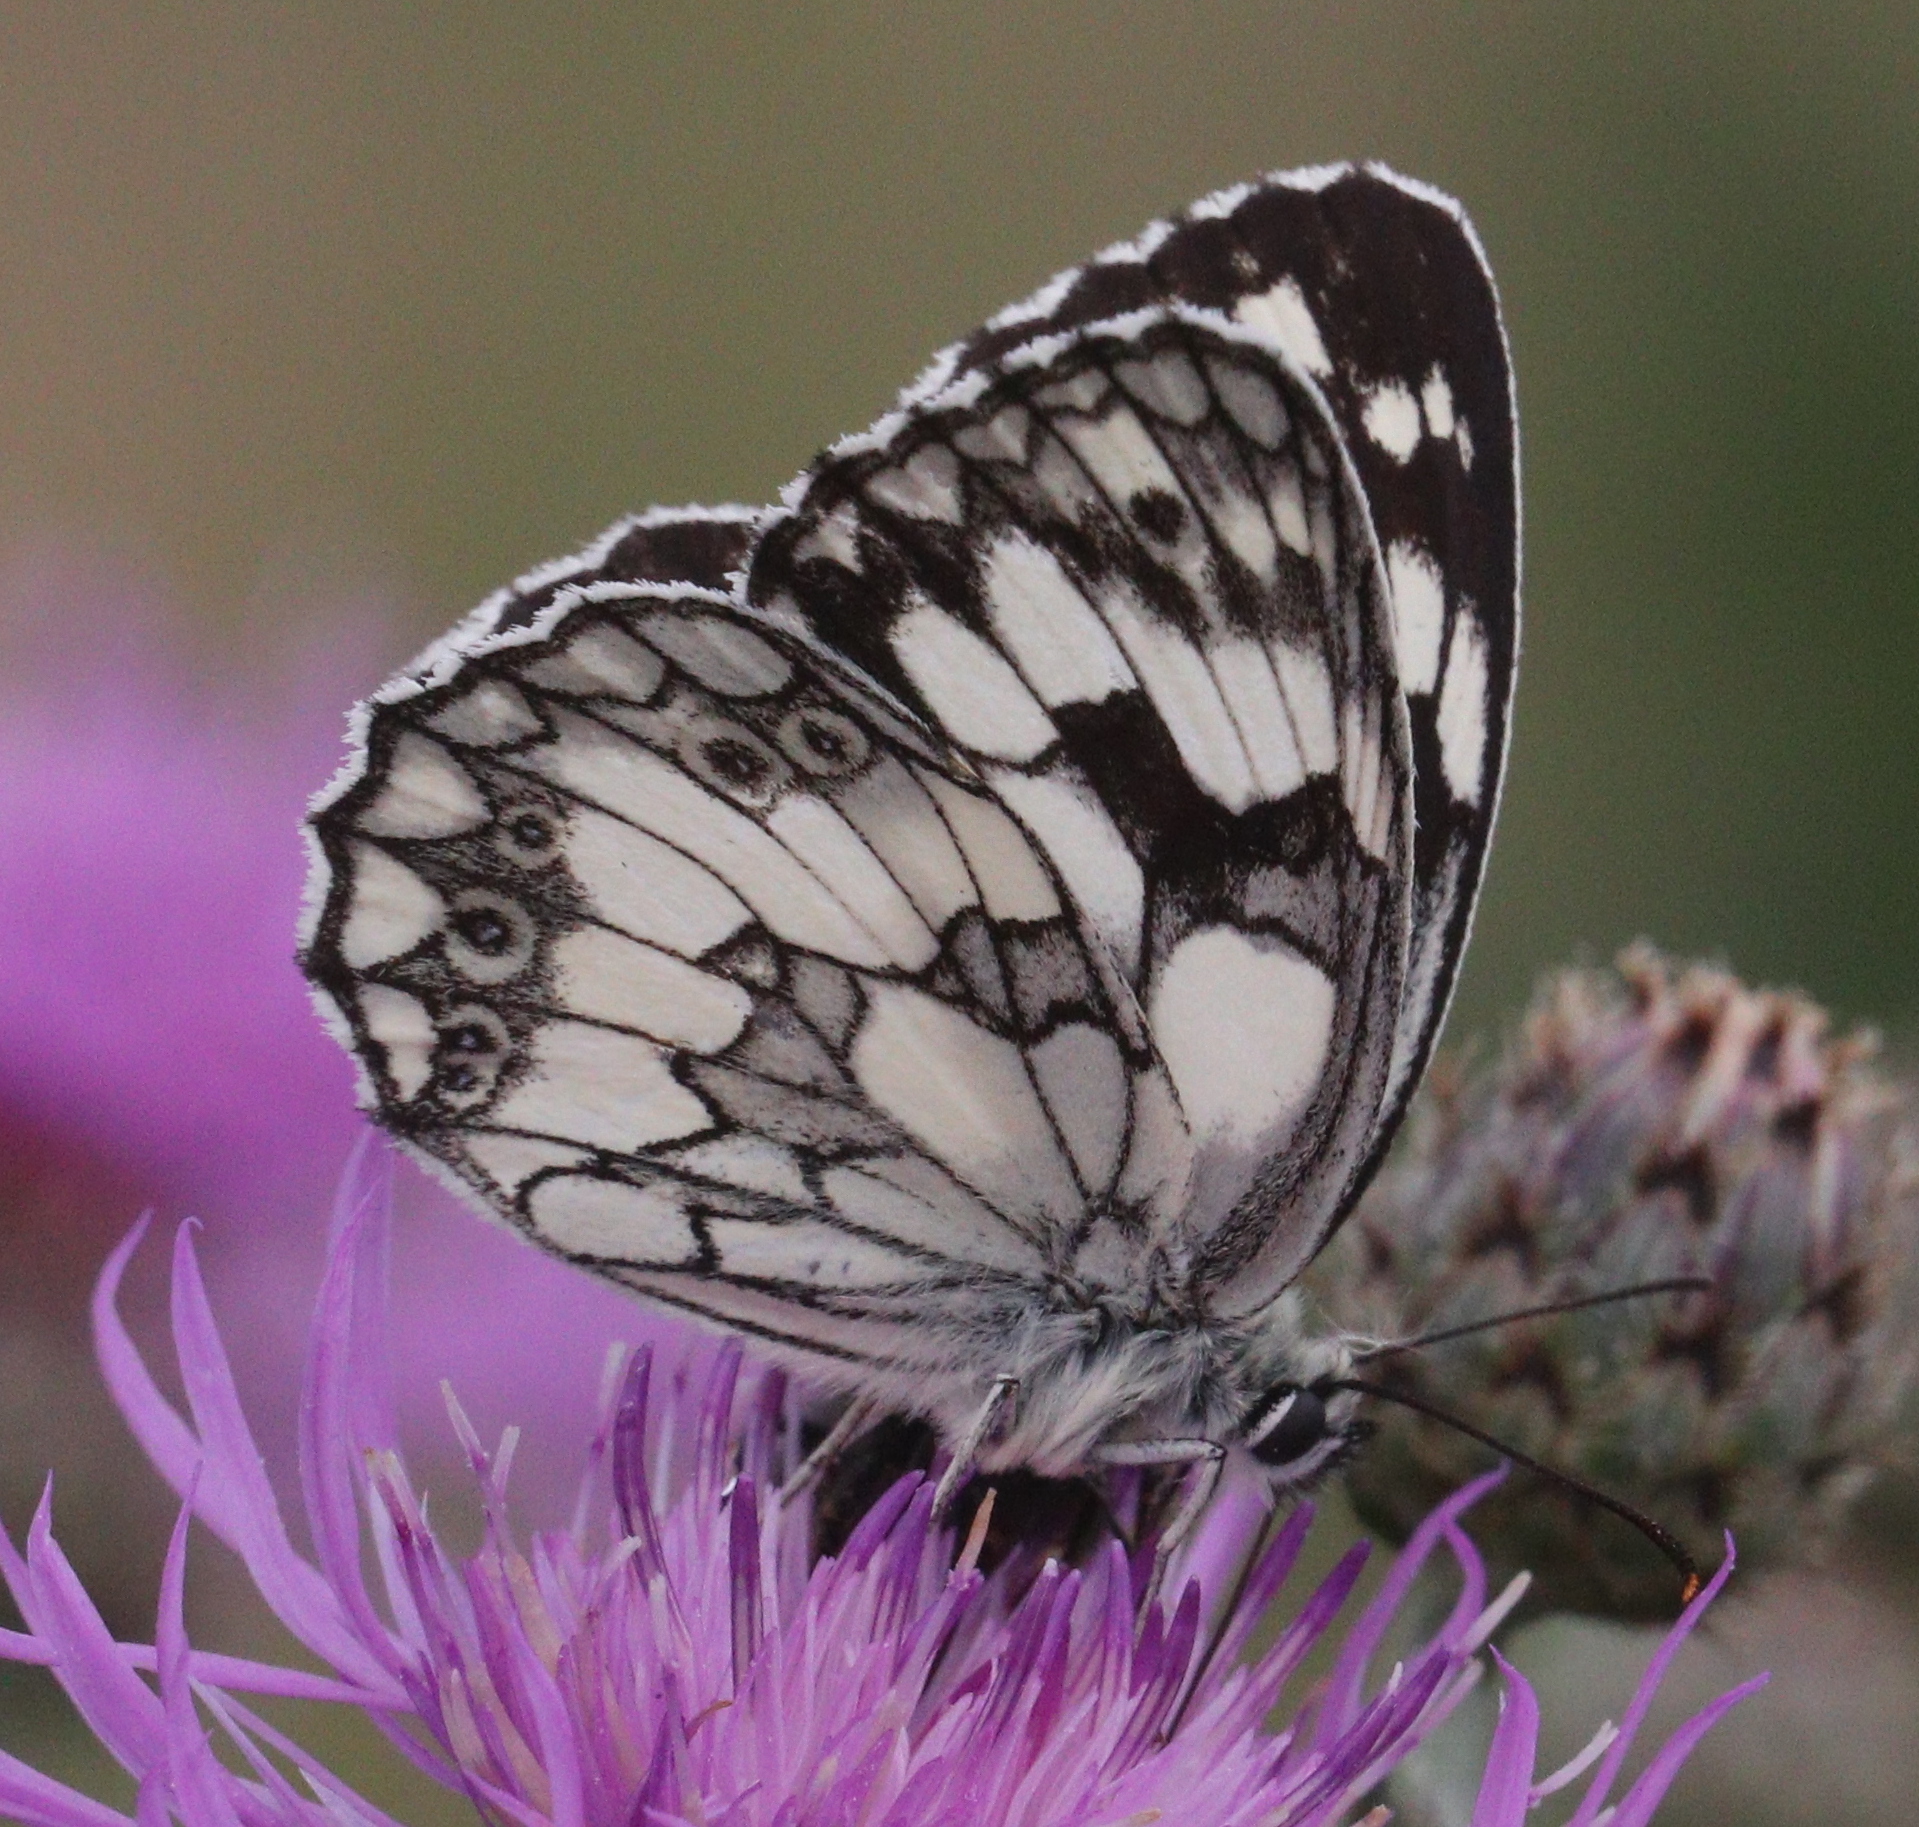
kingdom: Animalia
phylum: Arthropoda
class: Insecta
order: Lepidoptera
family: Nymphalidae
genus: Melanargia
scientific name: Melanargia galathea
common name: Marbled white
